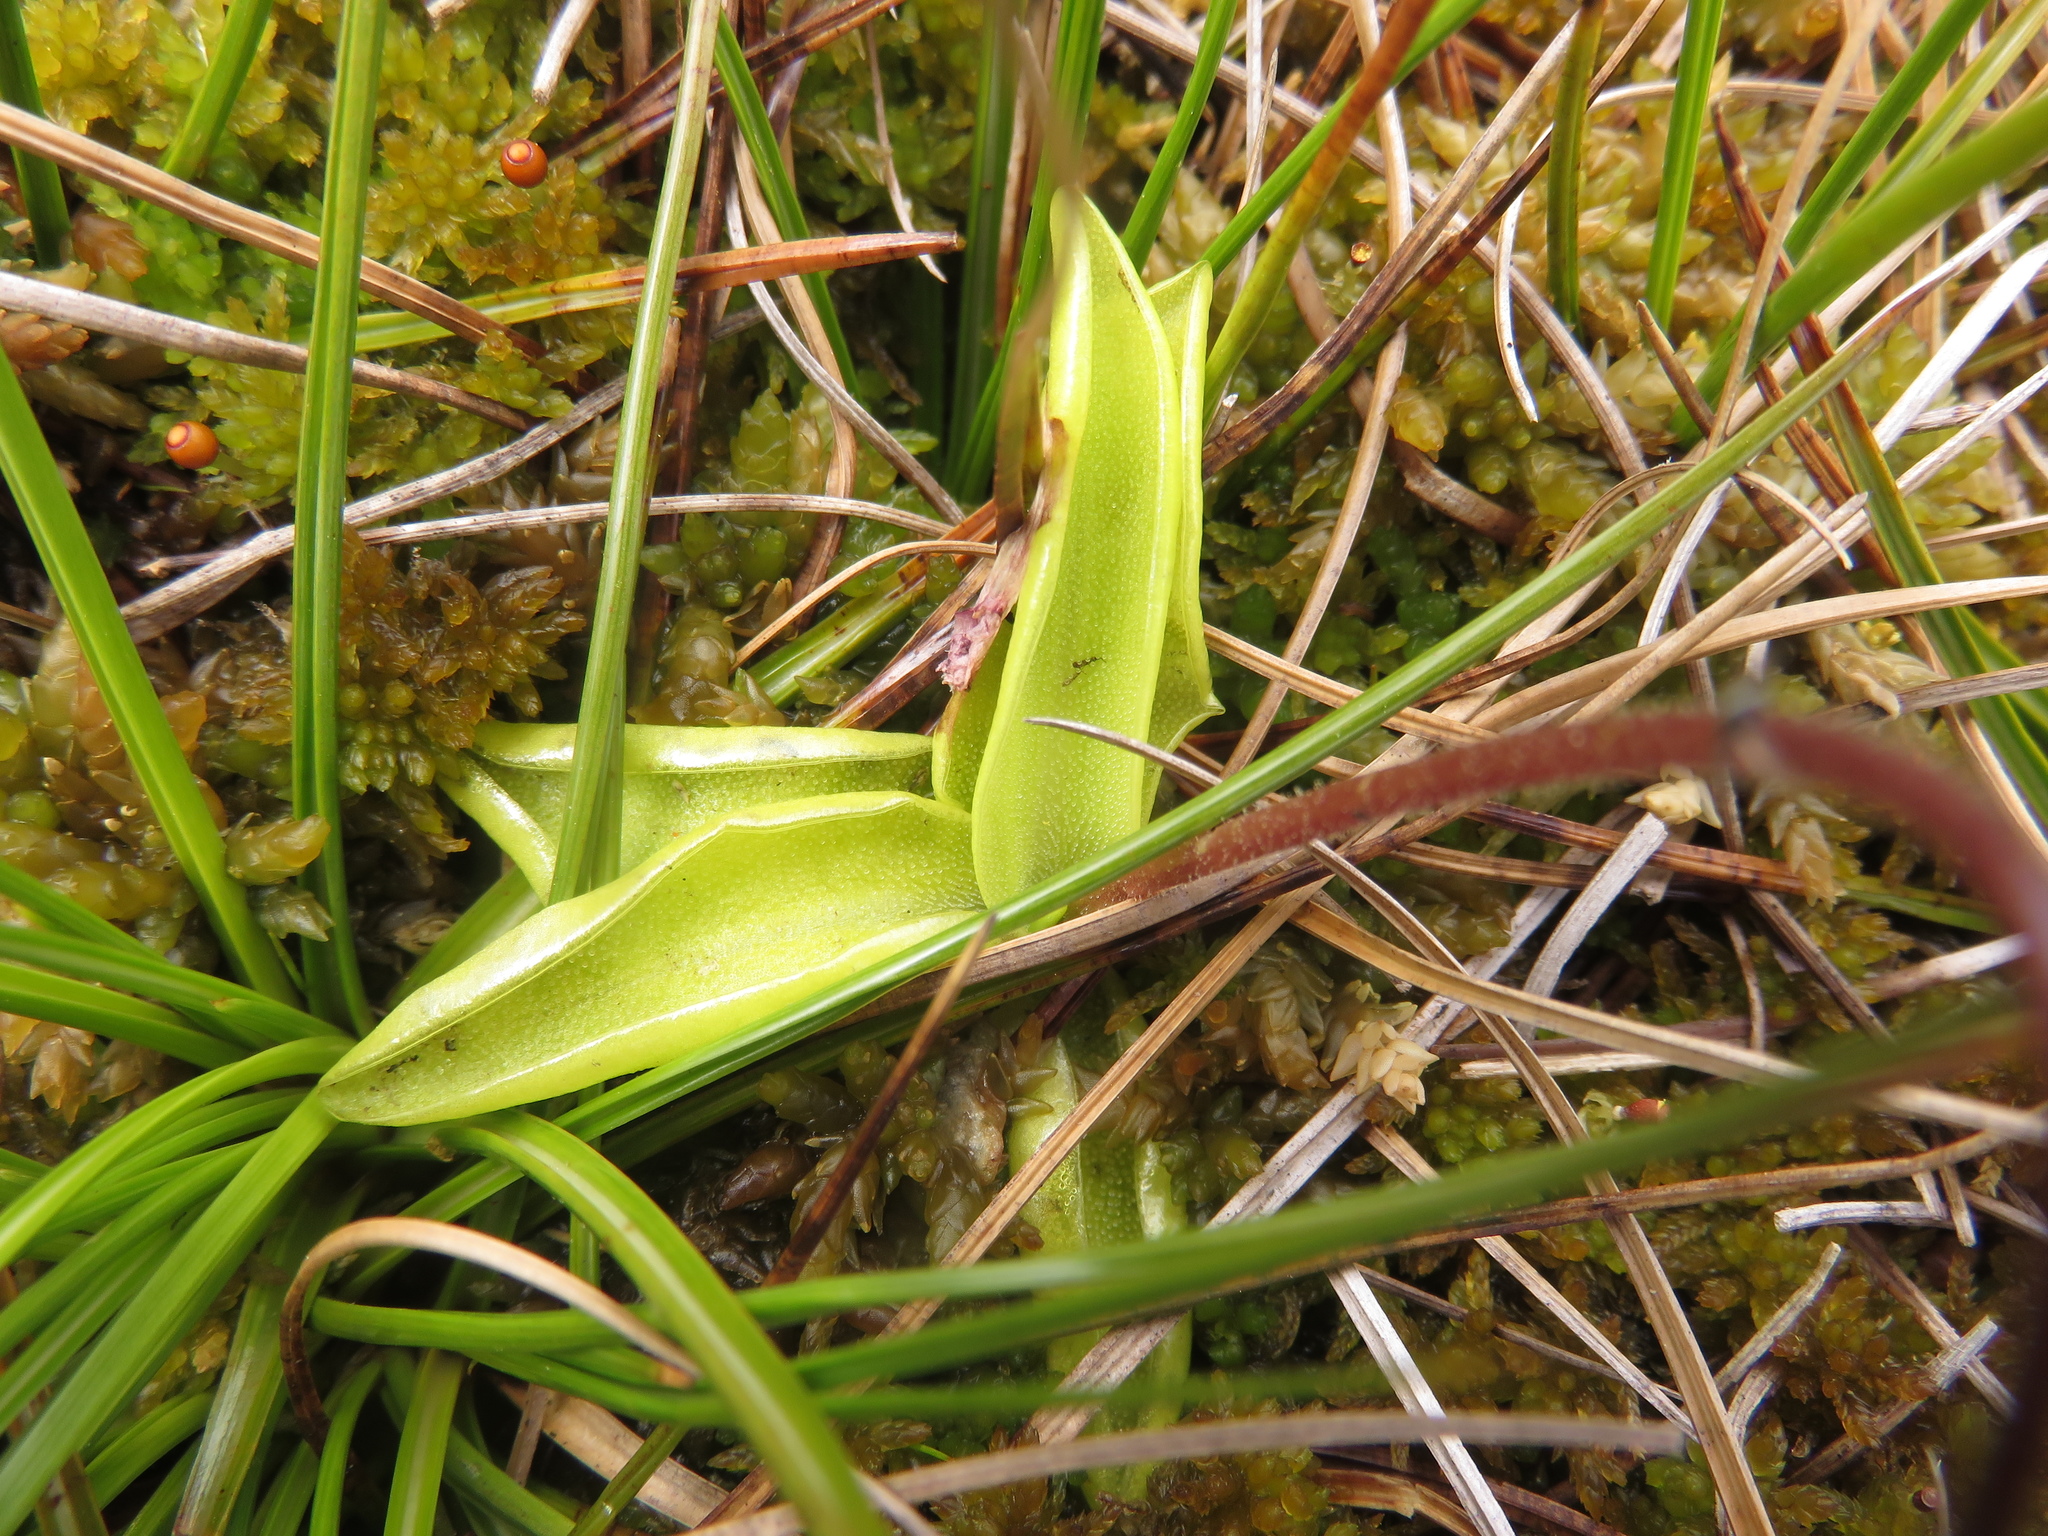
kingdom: Plantae
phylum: Tracheophyta
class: Magnoliopsida
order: Lamiales
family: Lentibulariaceae
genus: Pinguicula
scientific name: Pinguicula vulgaris
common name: Common butterwort
